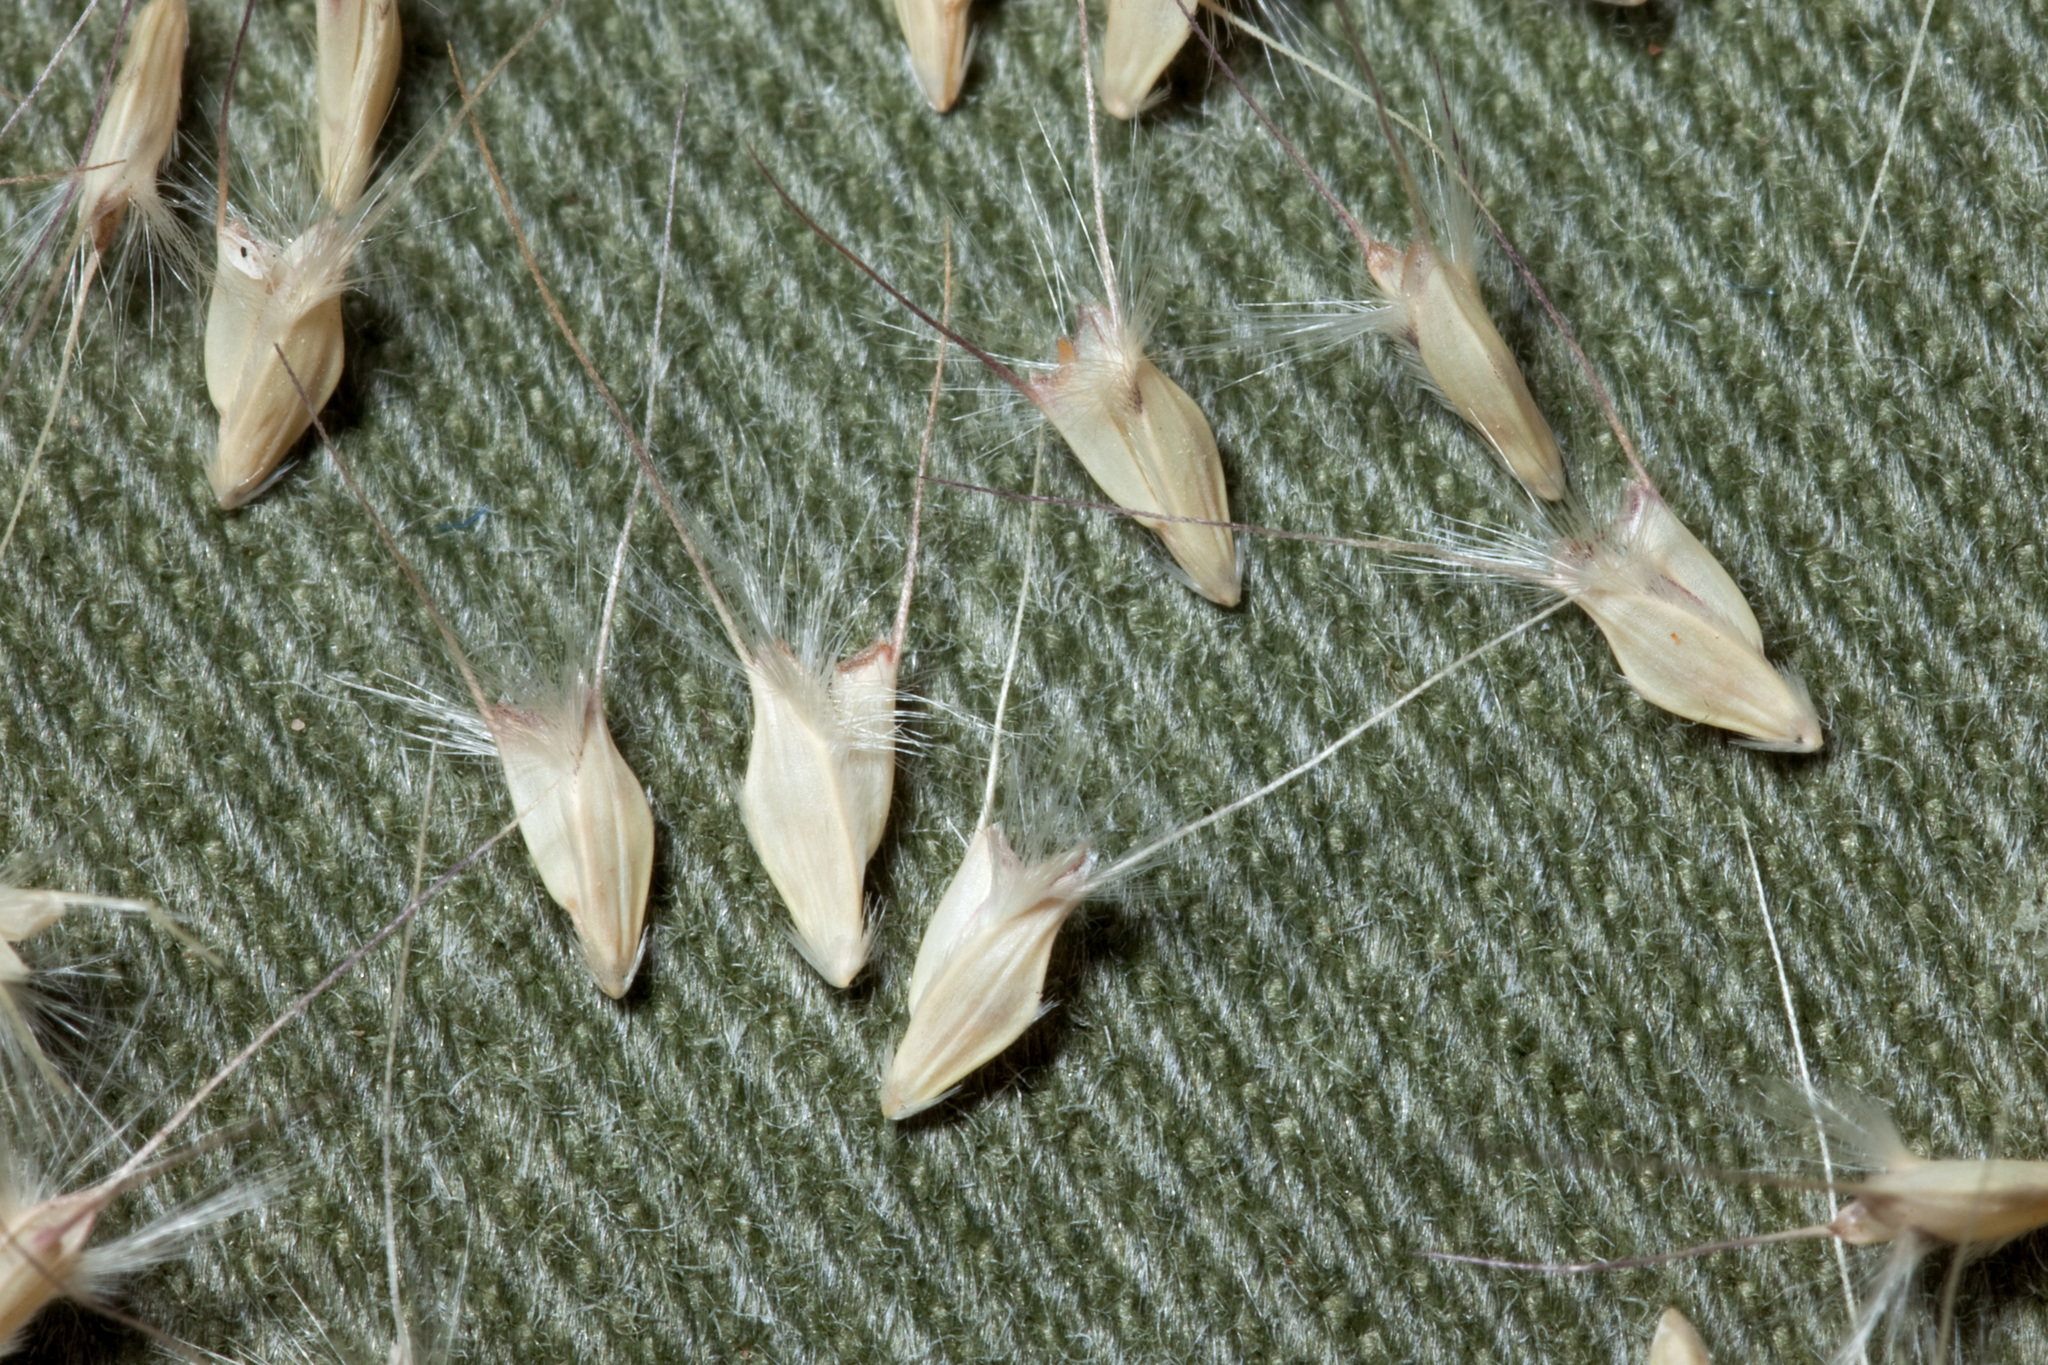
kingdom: Plantae
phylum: Tracheophyta
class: Liliopsida
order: Poales
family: Poaceae
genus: Chloris
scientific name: Chloris virgata
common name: Feathery rhodes-grass
